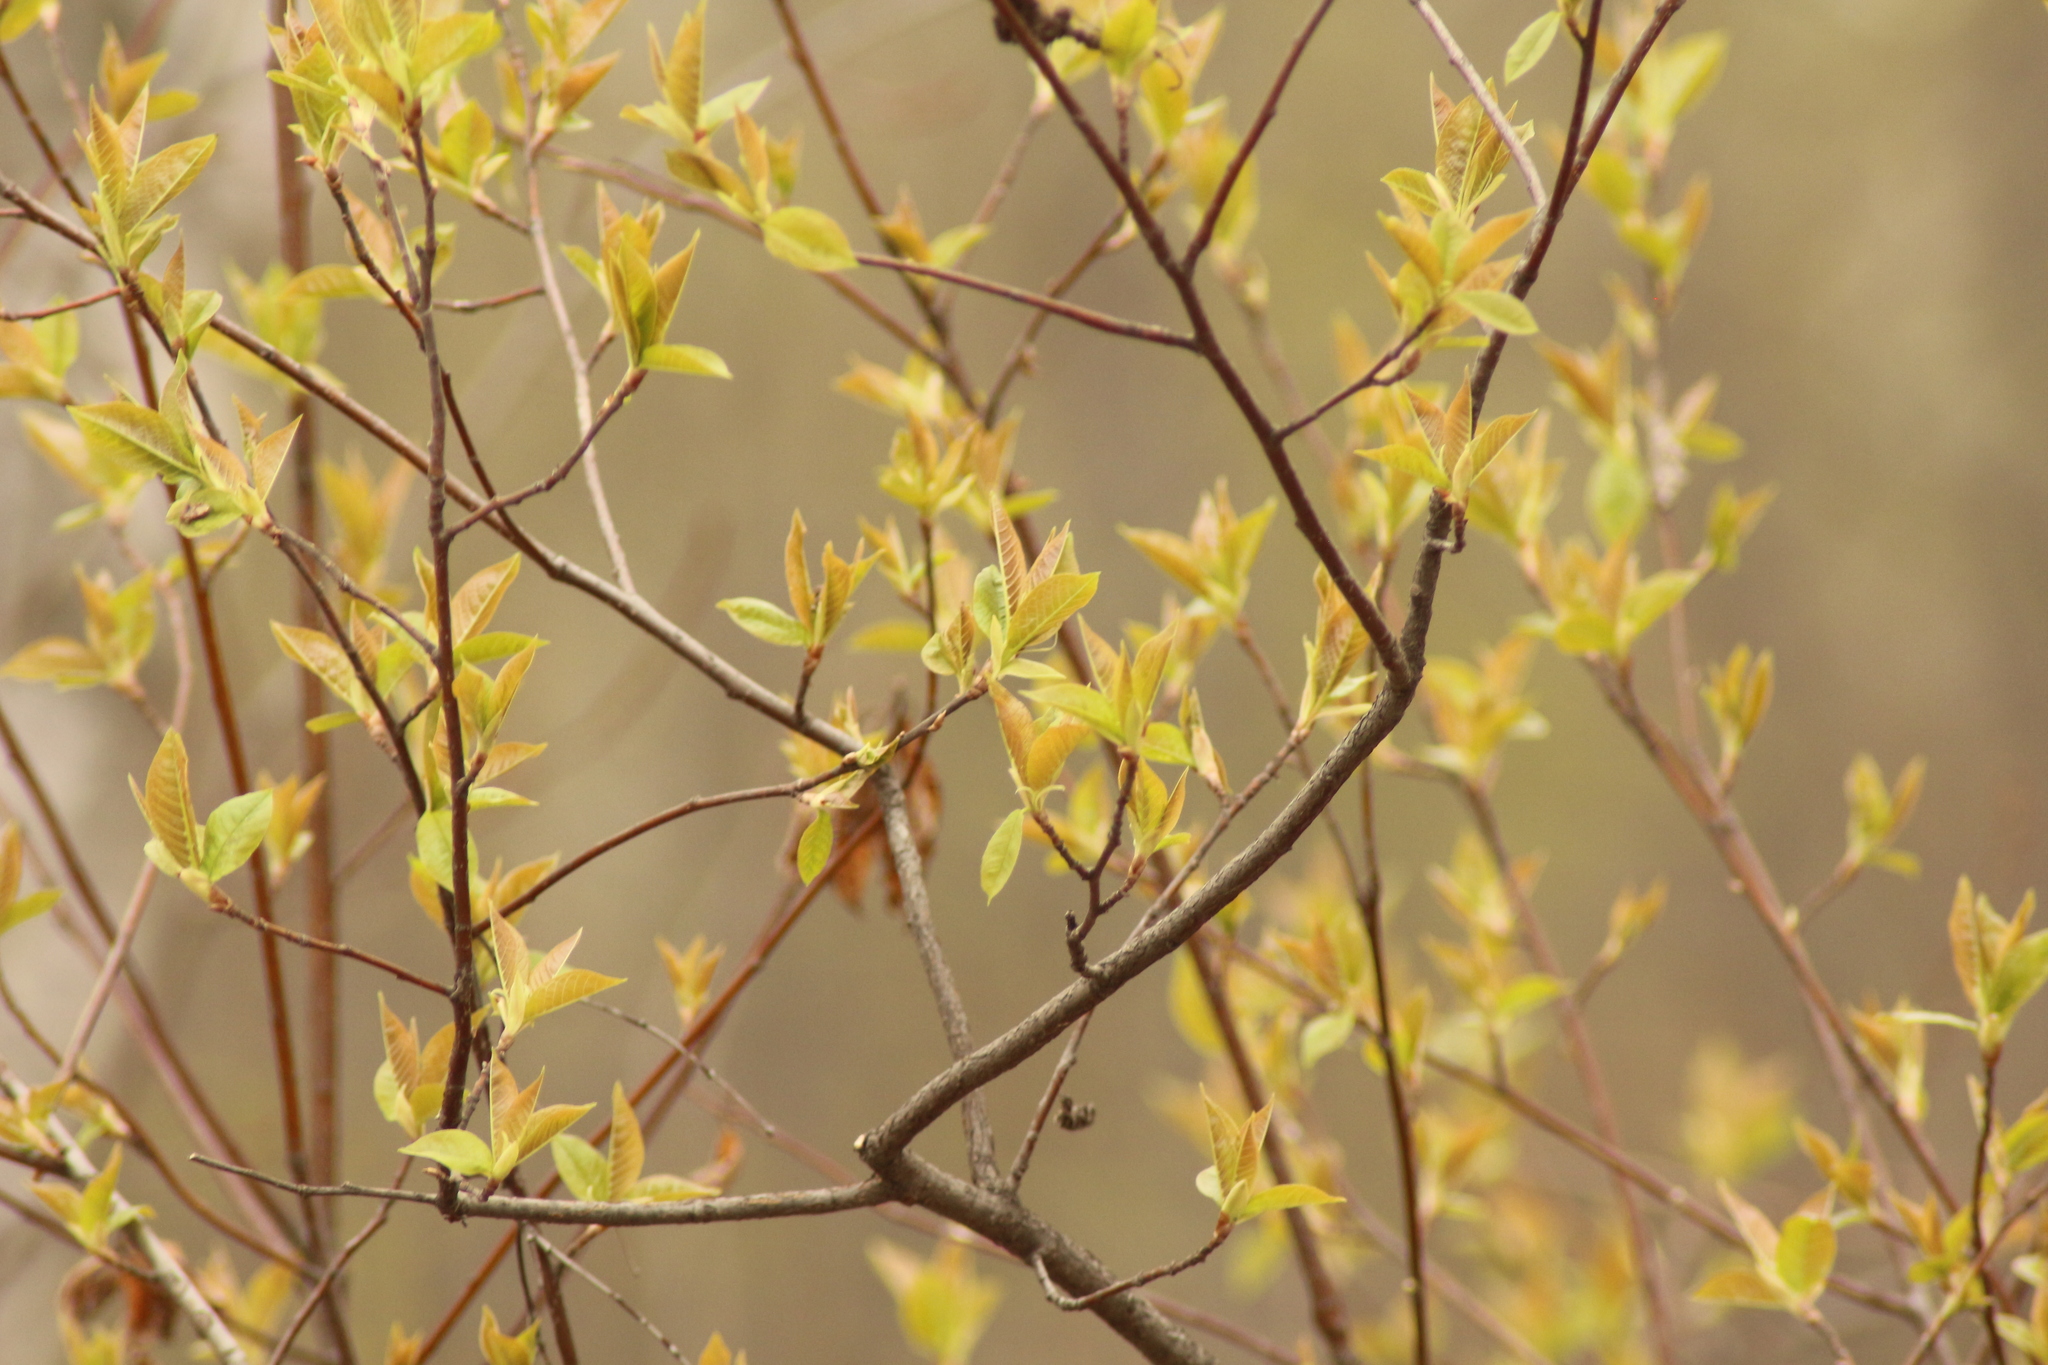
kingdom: Plantae
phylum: Tracheophyta
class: Magnoliopsida
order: Rosales
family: Rosaceae
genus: Prunus
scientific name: Prunus padus
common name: Bird cherry
